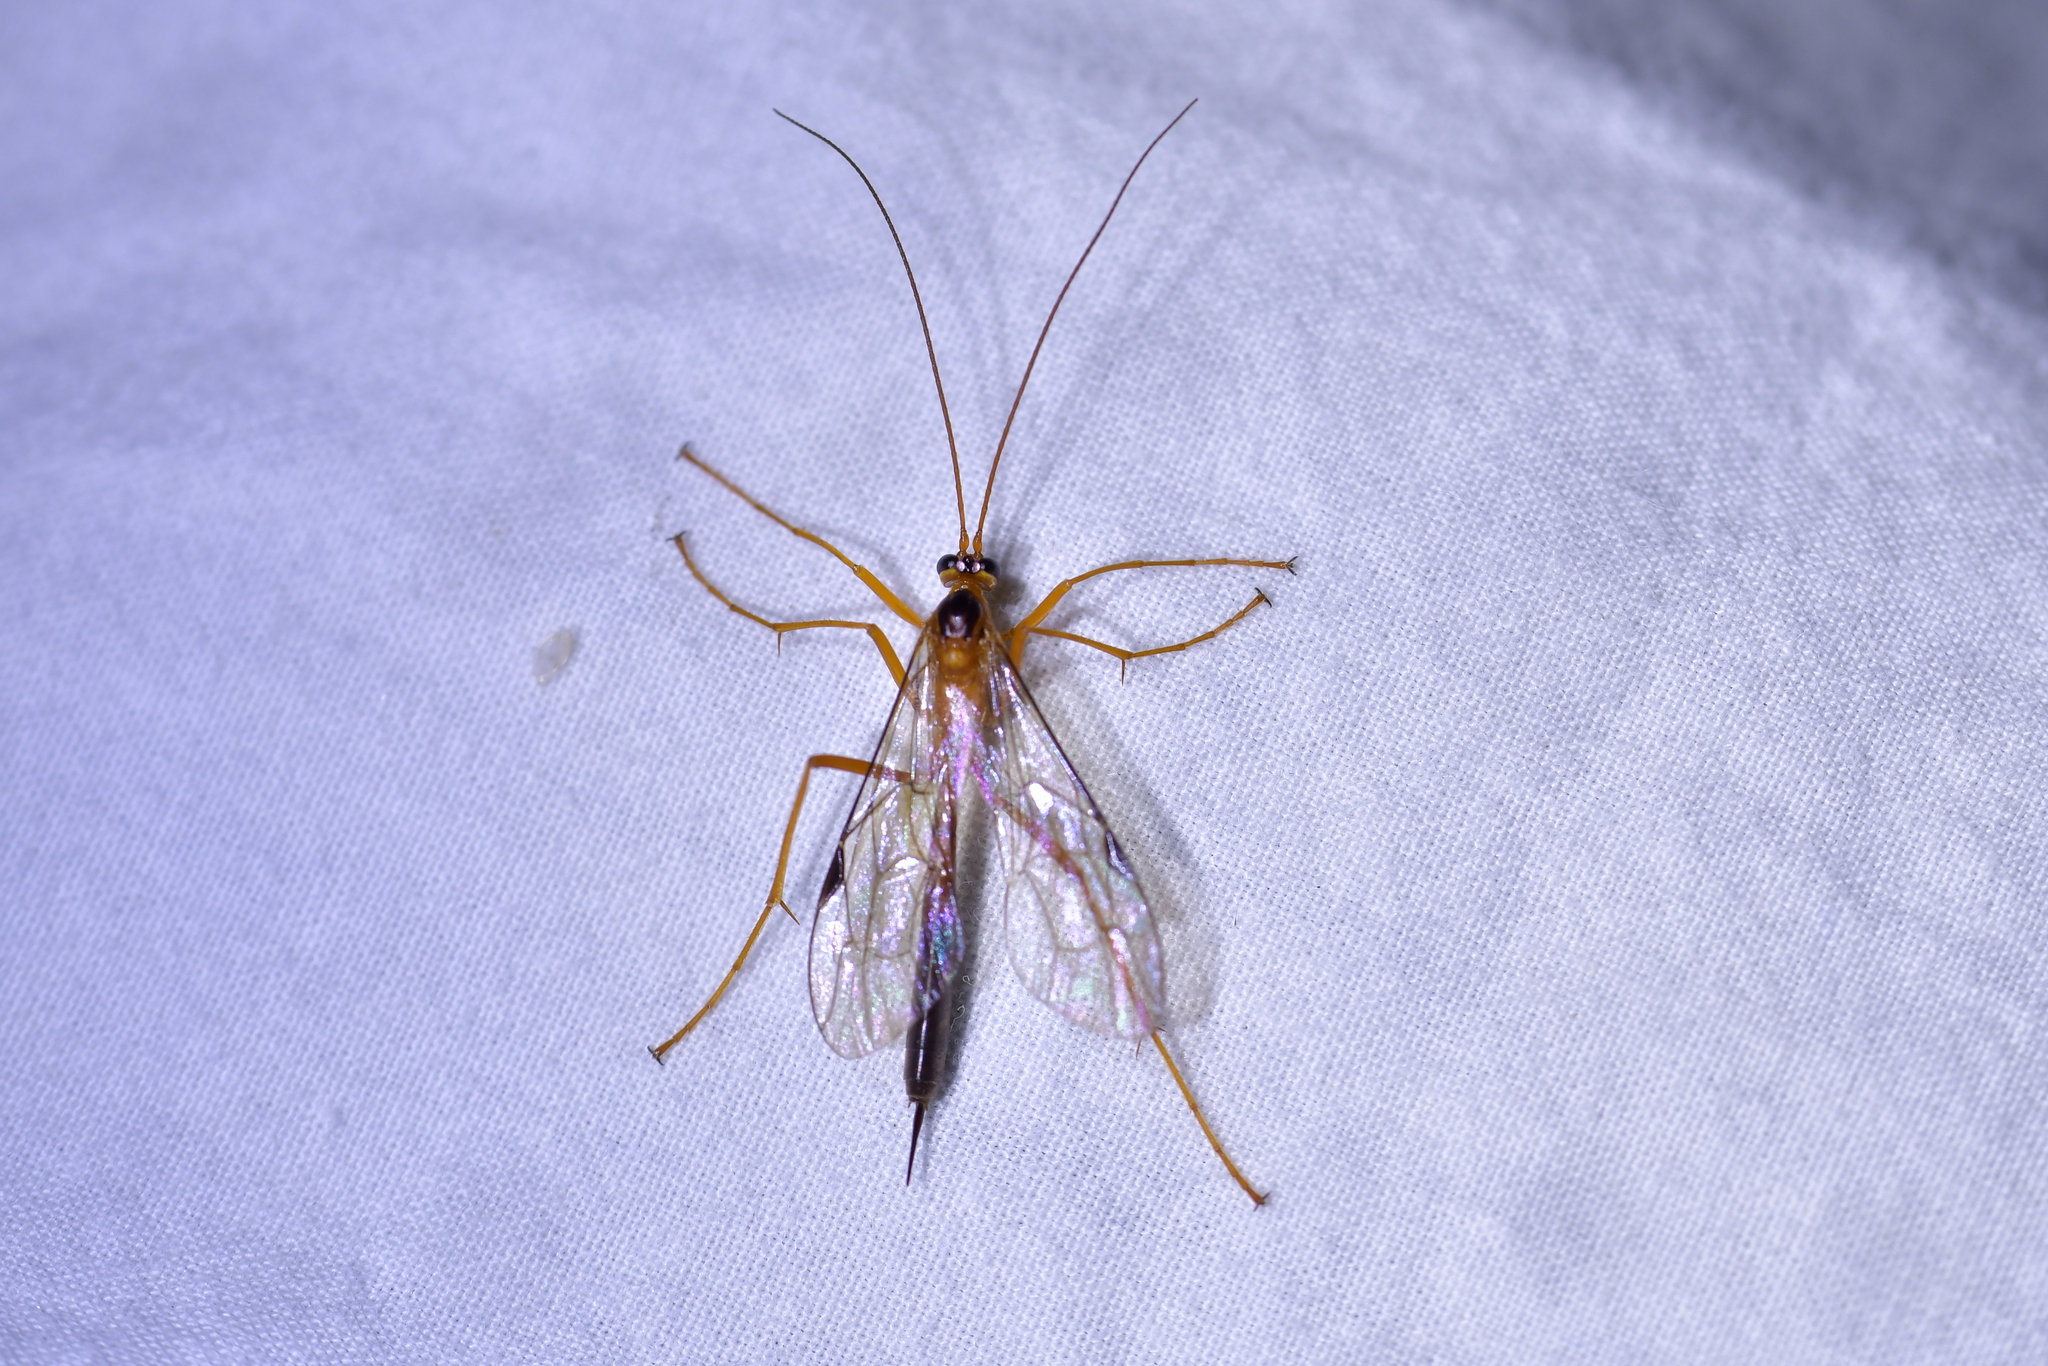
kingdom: Animalia
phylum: Arthropoda
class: Insecta
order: Hymenoptera
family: Ichneumonidae
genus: Netelia
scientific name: Netelia ephippiata
